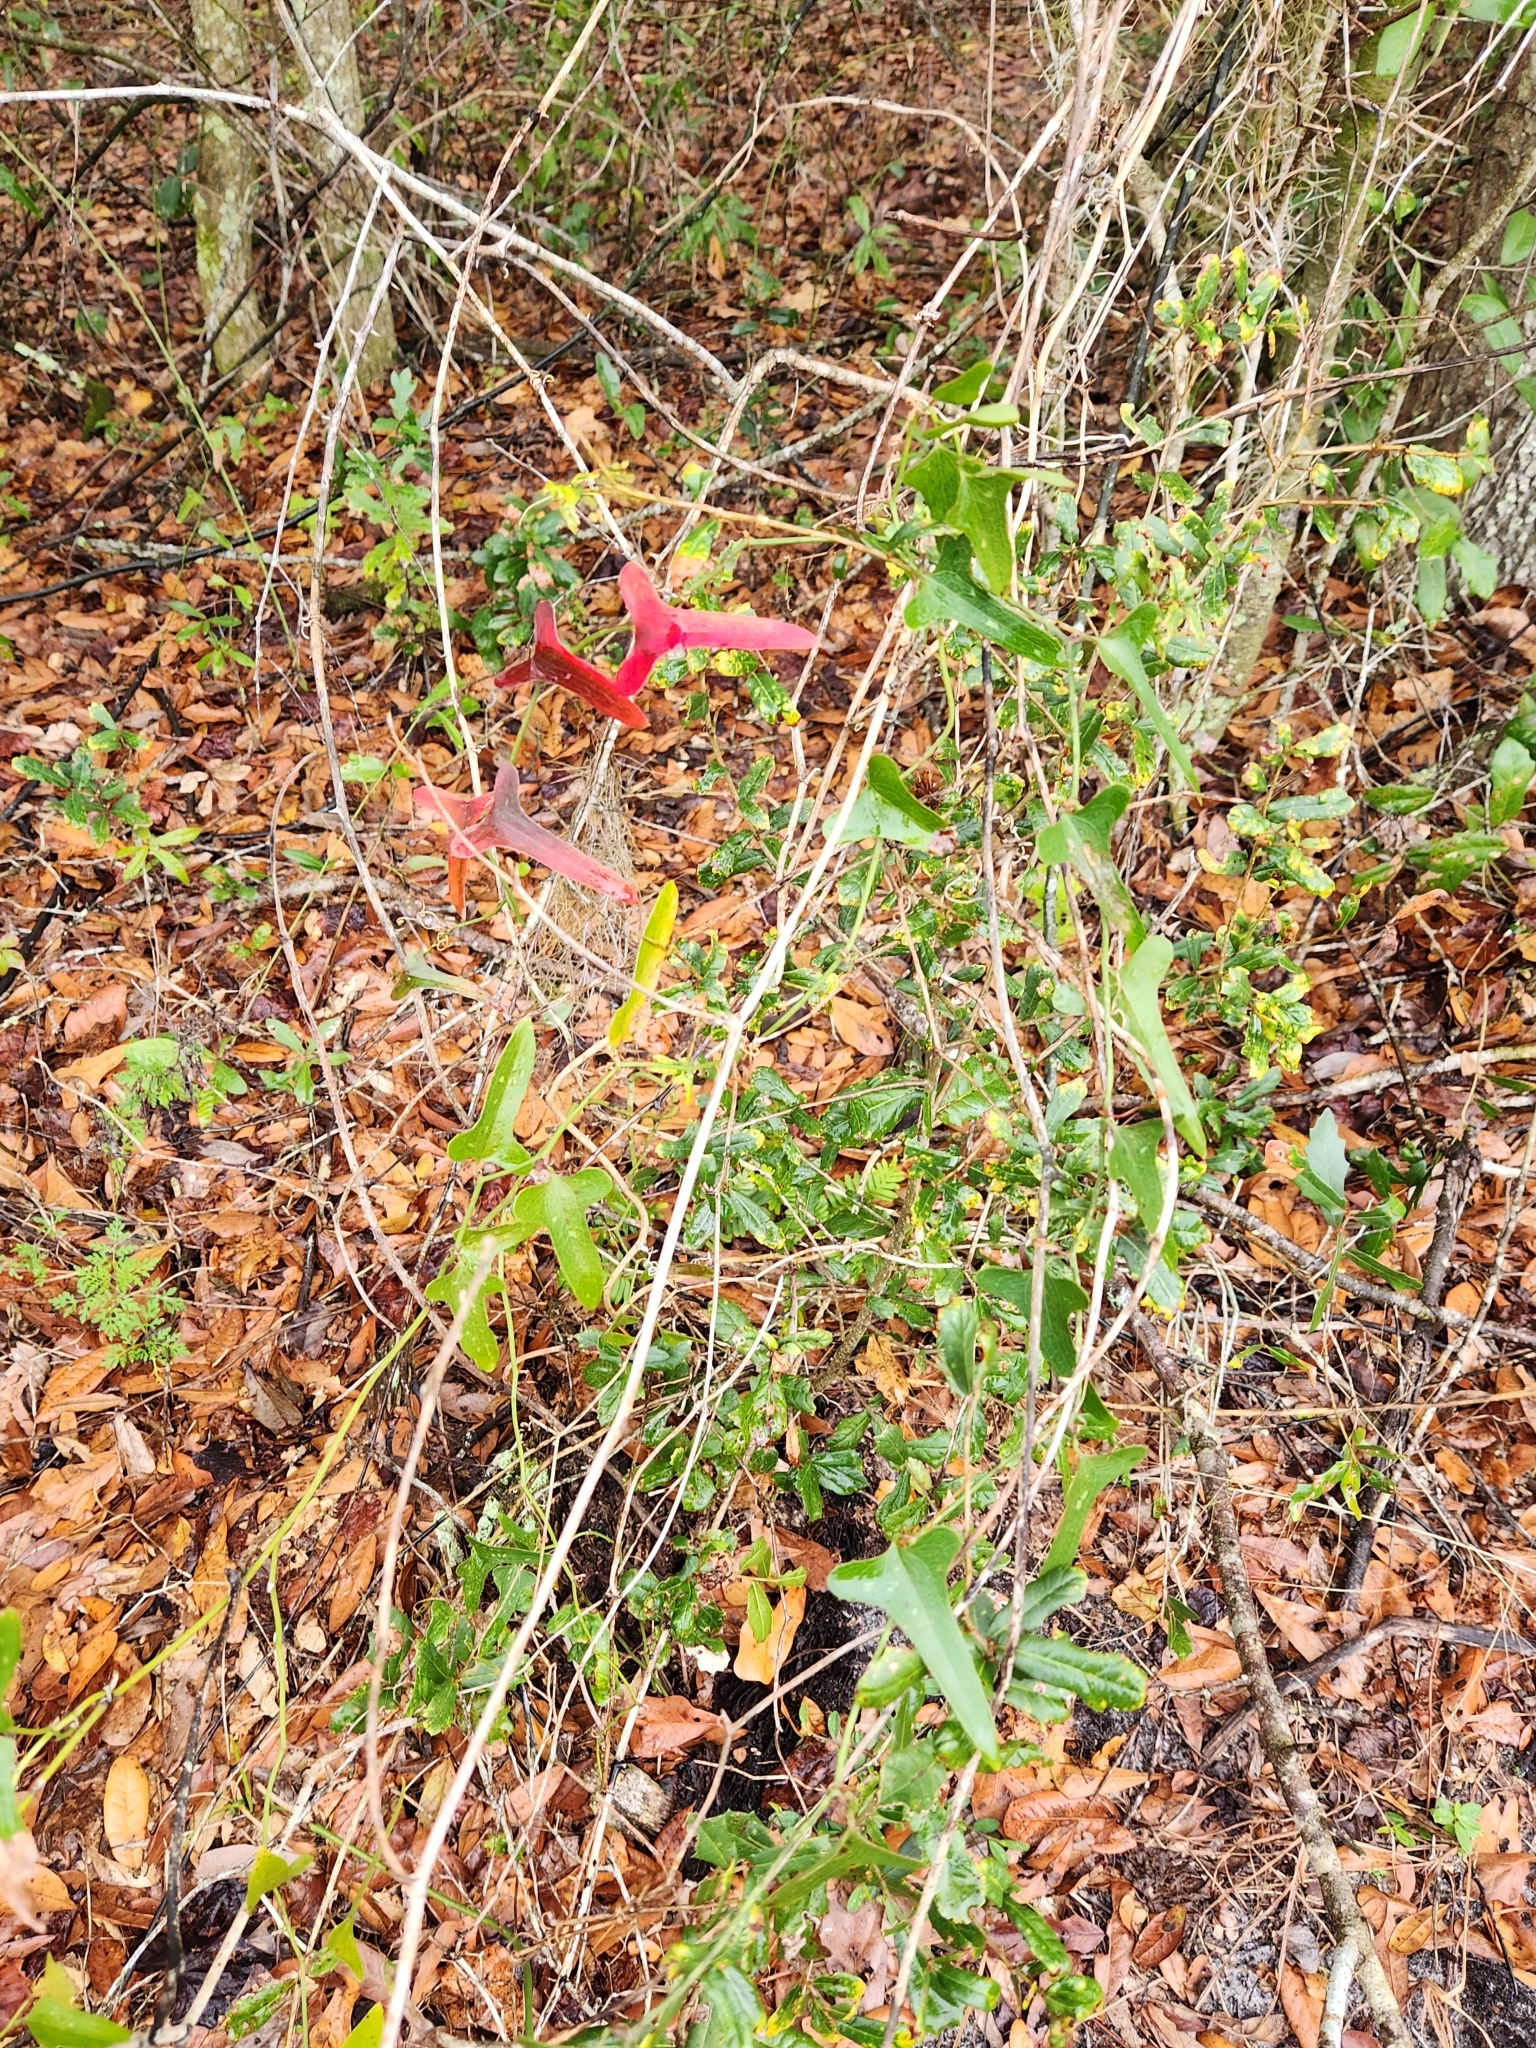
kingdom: Plantae
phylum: Tracheophyta
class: Liliopsida
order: Liliales
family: Smilacaceae
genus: Smilax
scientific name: Smilax bona-nox
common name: Catbrier
